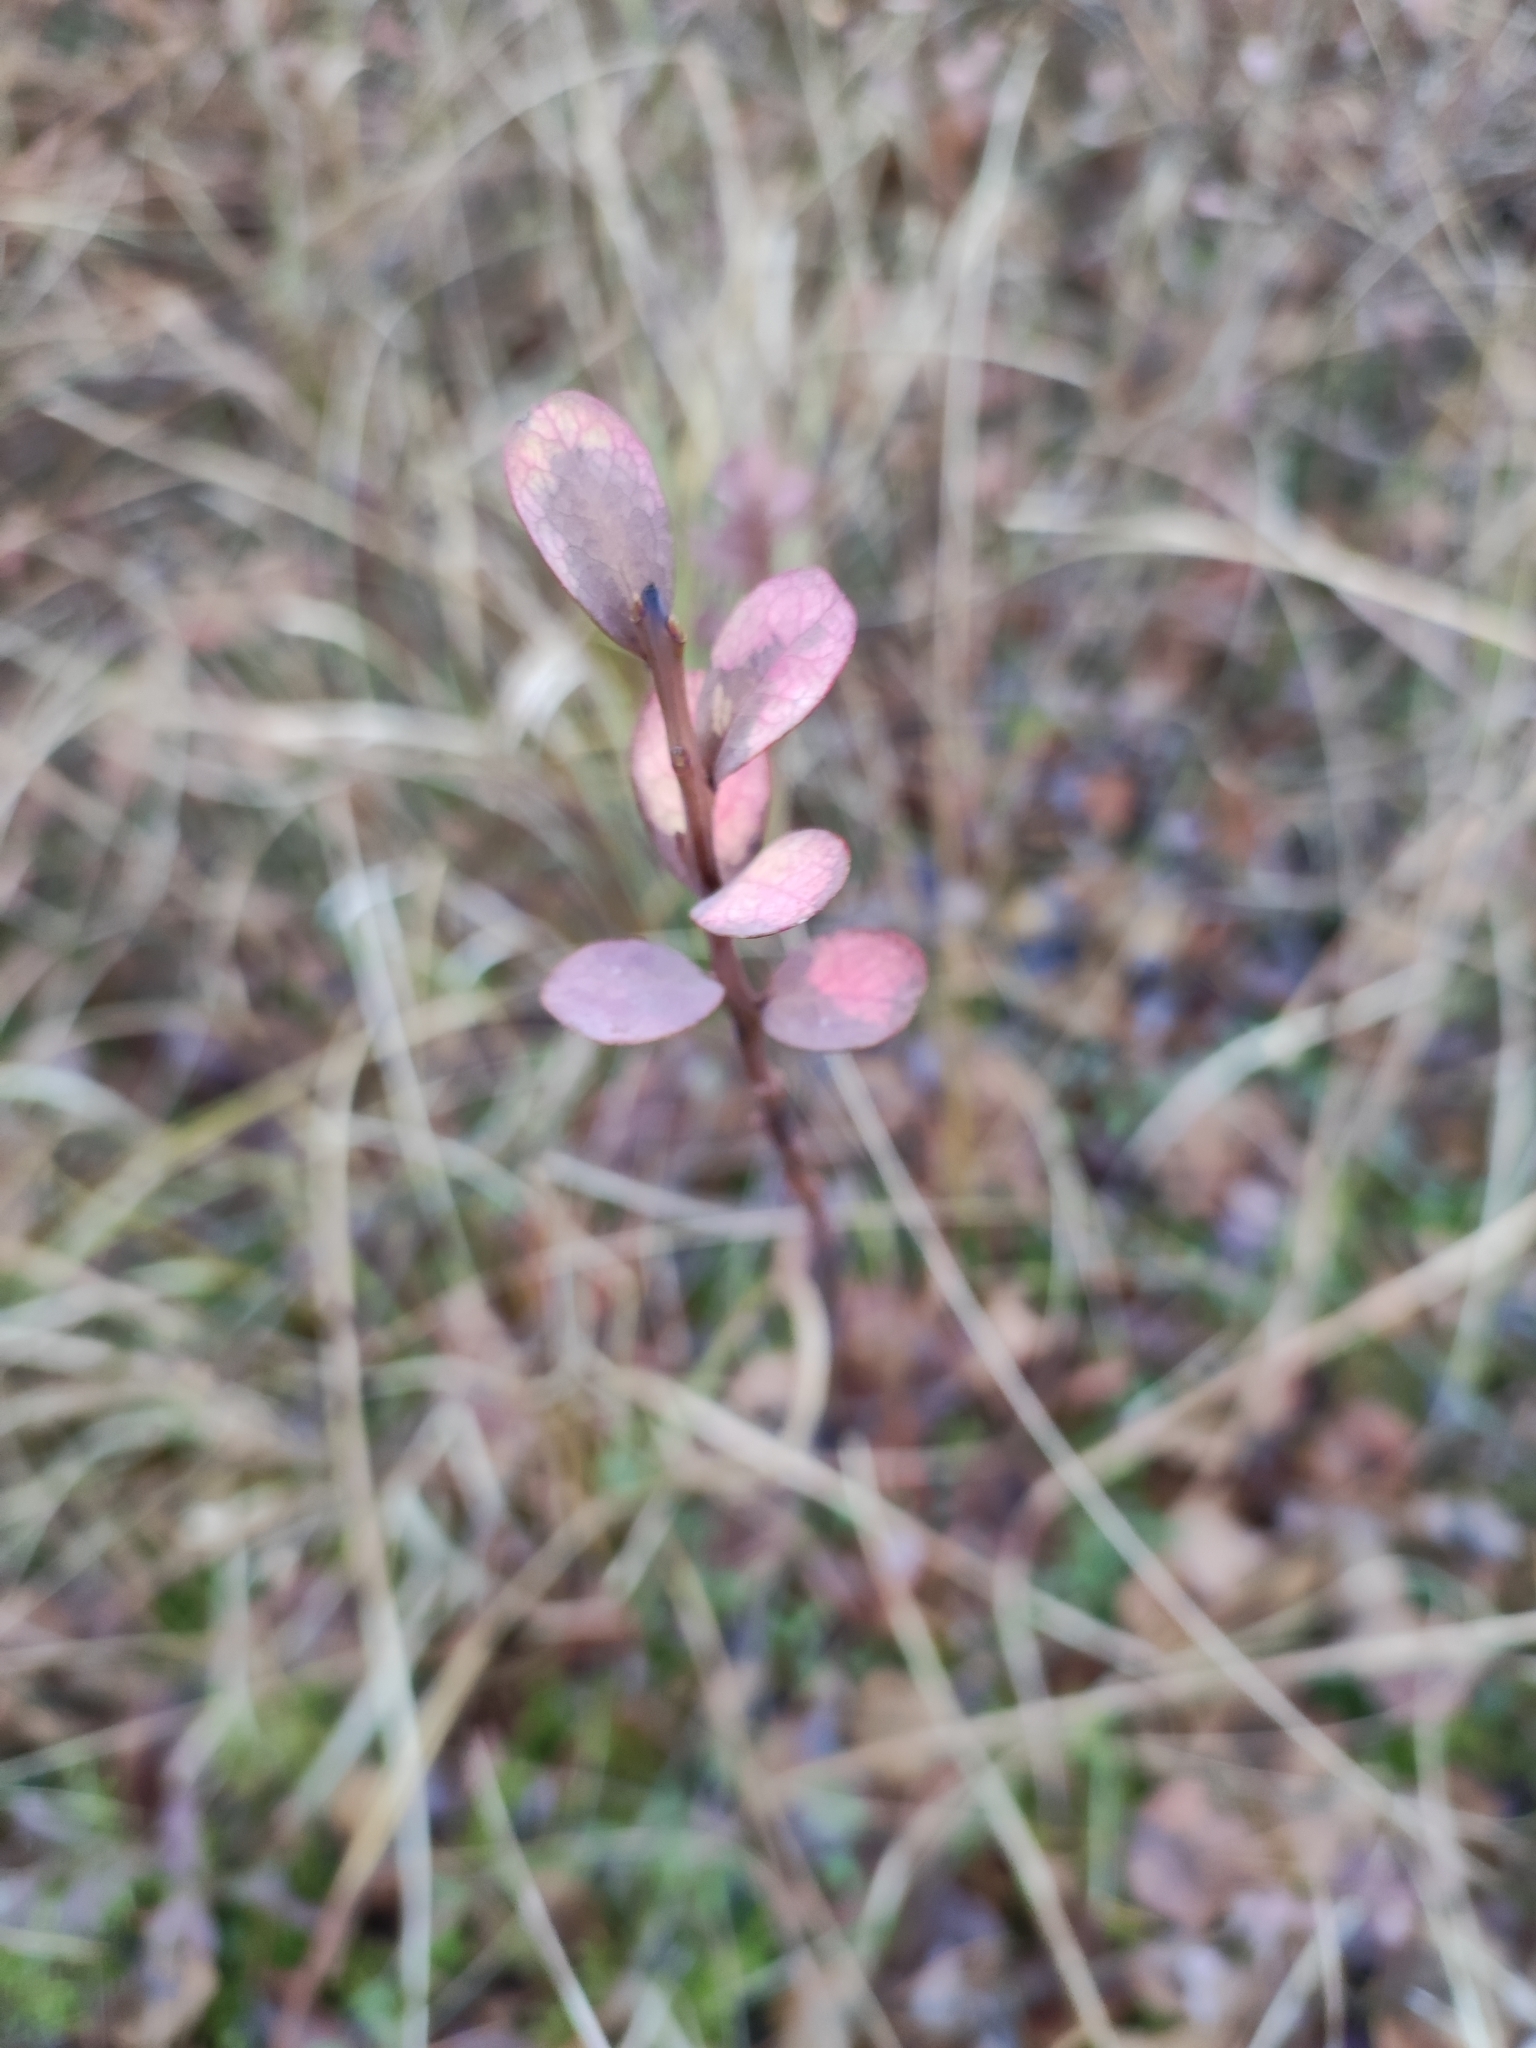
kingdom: Plantae
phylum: Tracheophyta
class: Magnoliopsida
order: Ericales
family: Ericaceae
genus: Vaccinium
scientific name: Vaccinium uliginosum
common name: Bog bilberry
